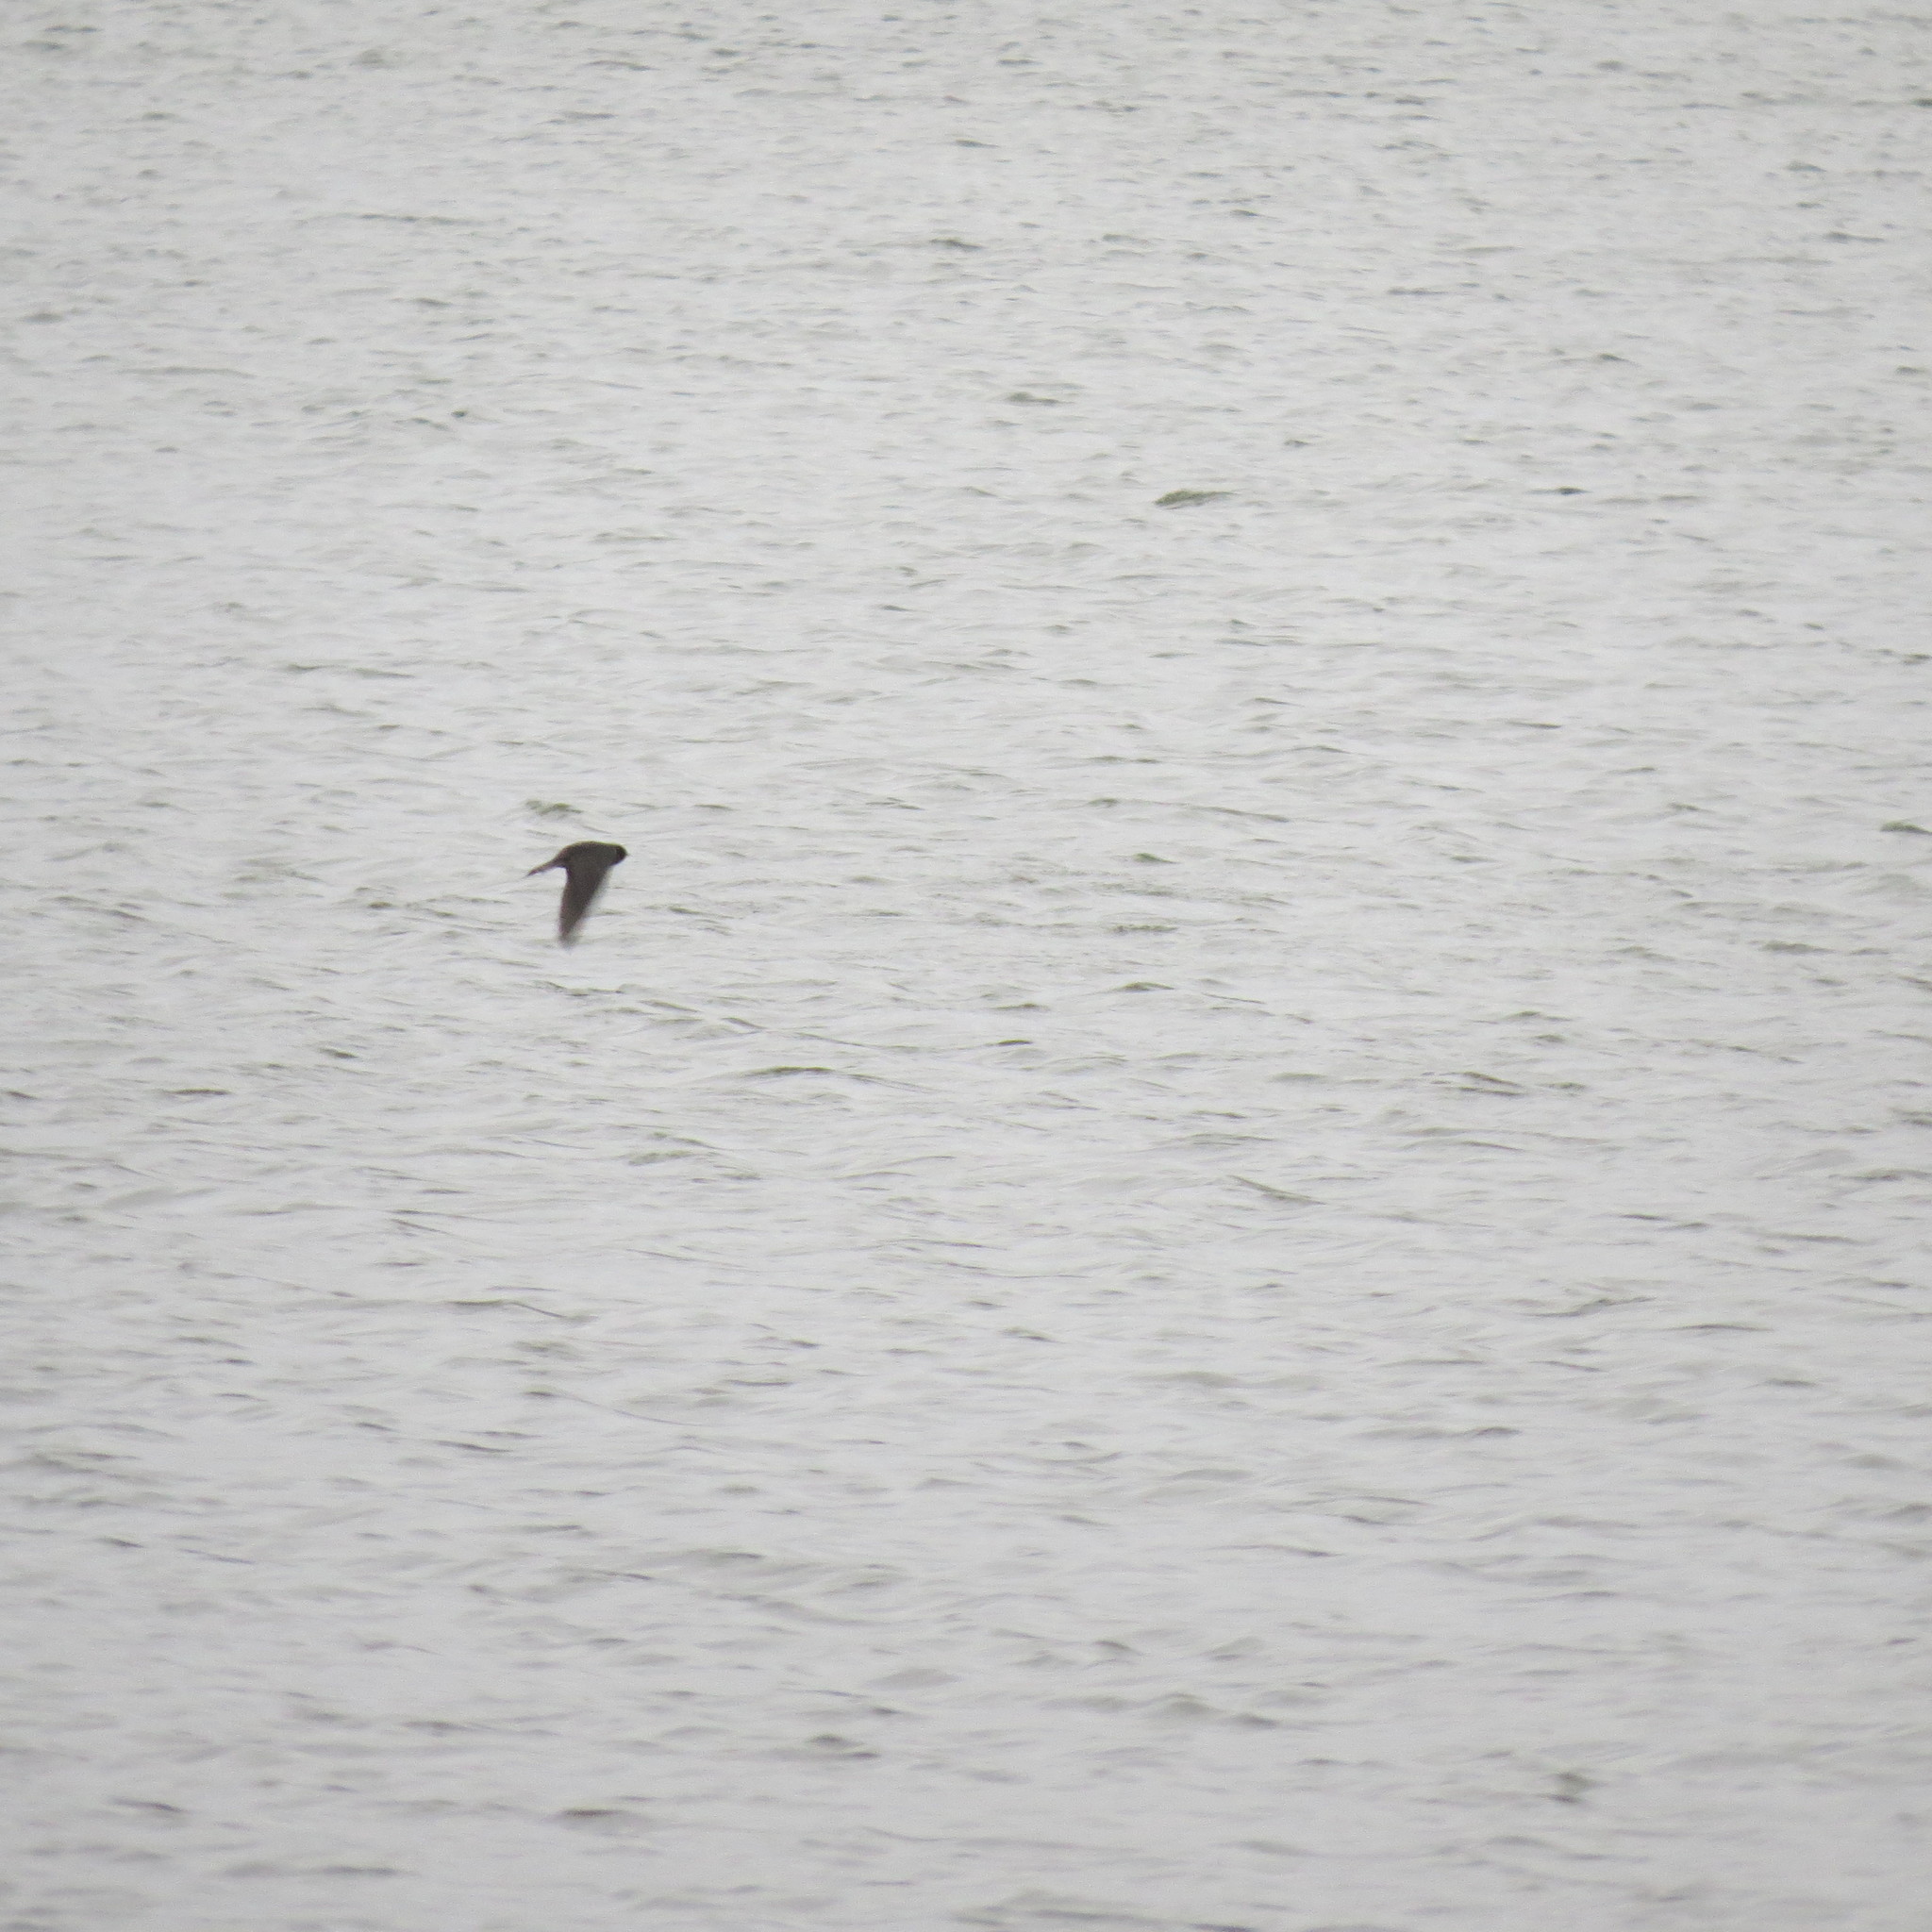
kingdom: Animalia
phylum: Chordata
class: Aves
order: Passeriformes
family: Hirundinidae
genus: Hirundo
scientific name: Hirundo rustica
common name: Barn swallow
